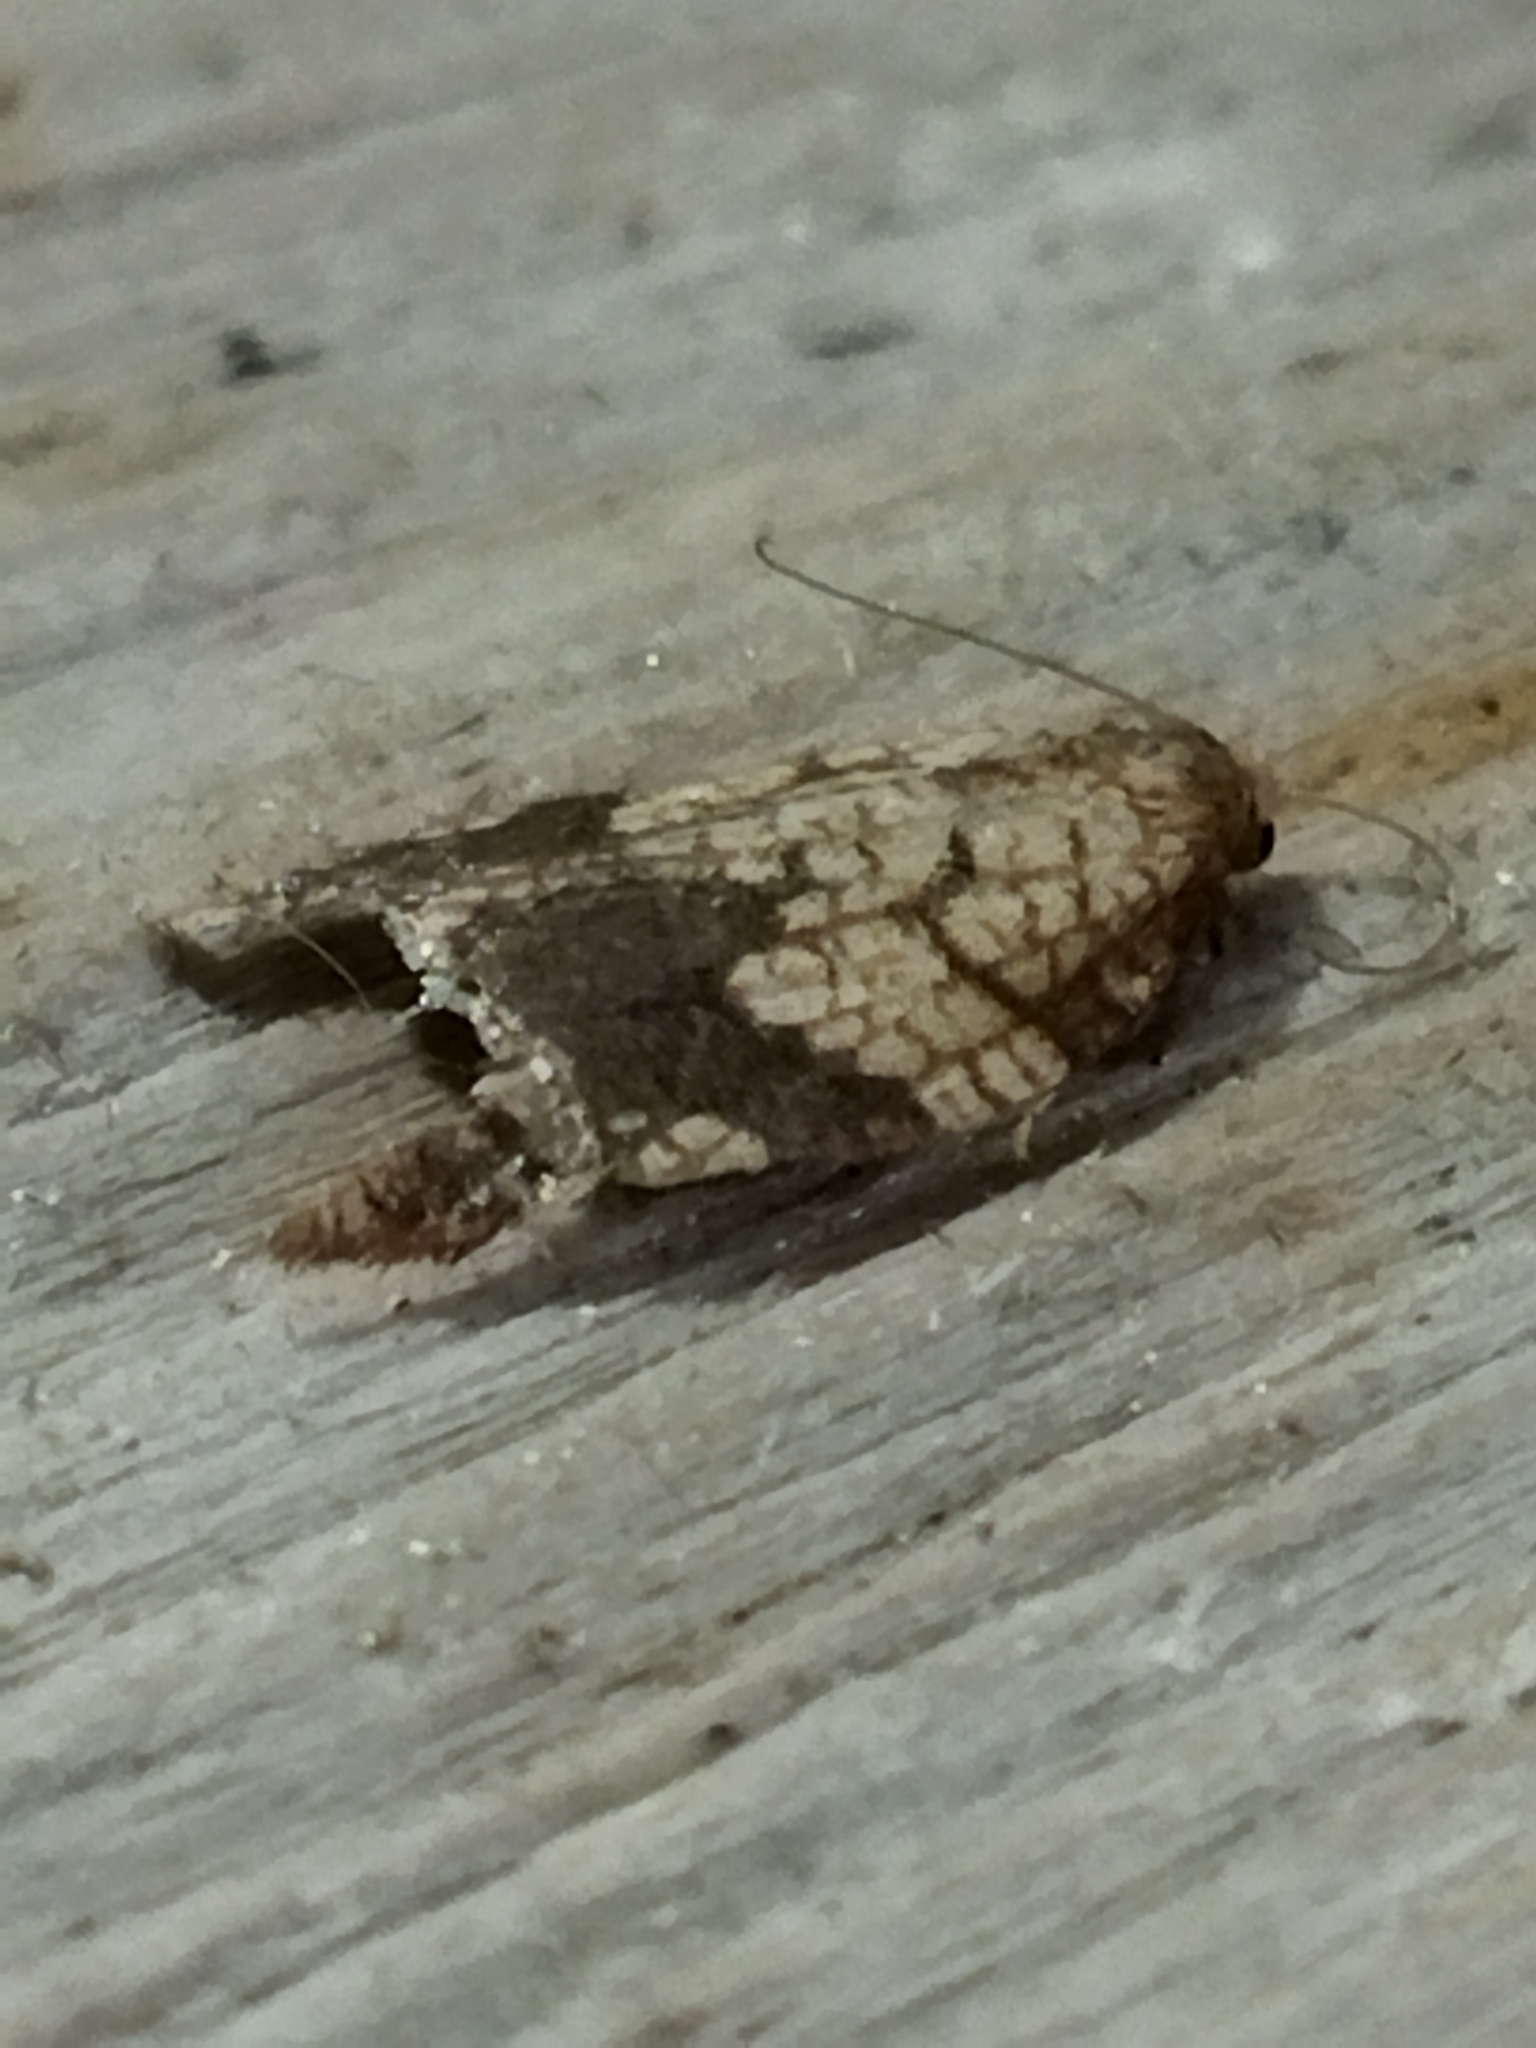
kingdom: Animalia
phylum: Arthropoda
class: Insecta
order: Lepidoptera
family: Tortricidae
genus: Acleris
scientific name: Acleris rhombana
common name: Tortricid moth
